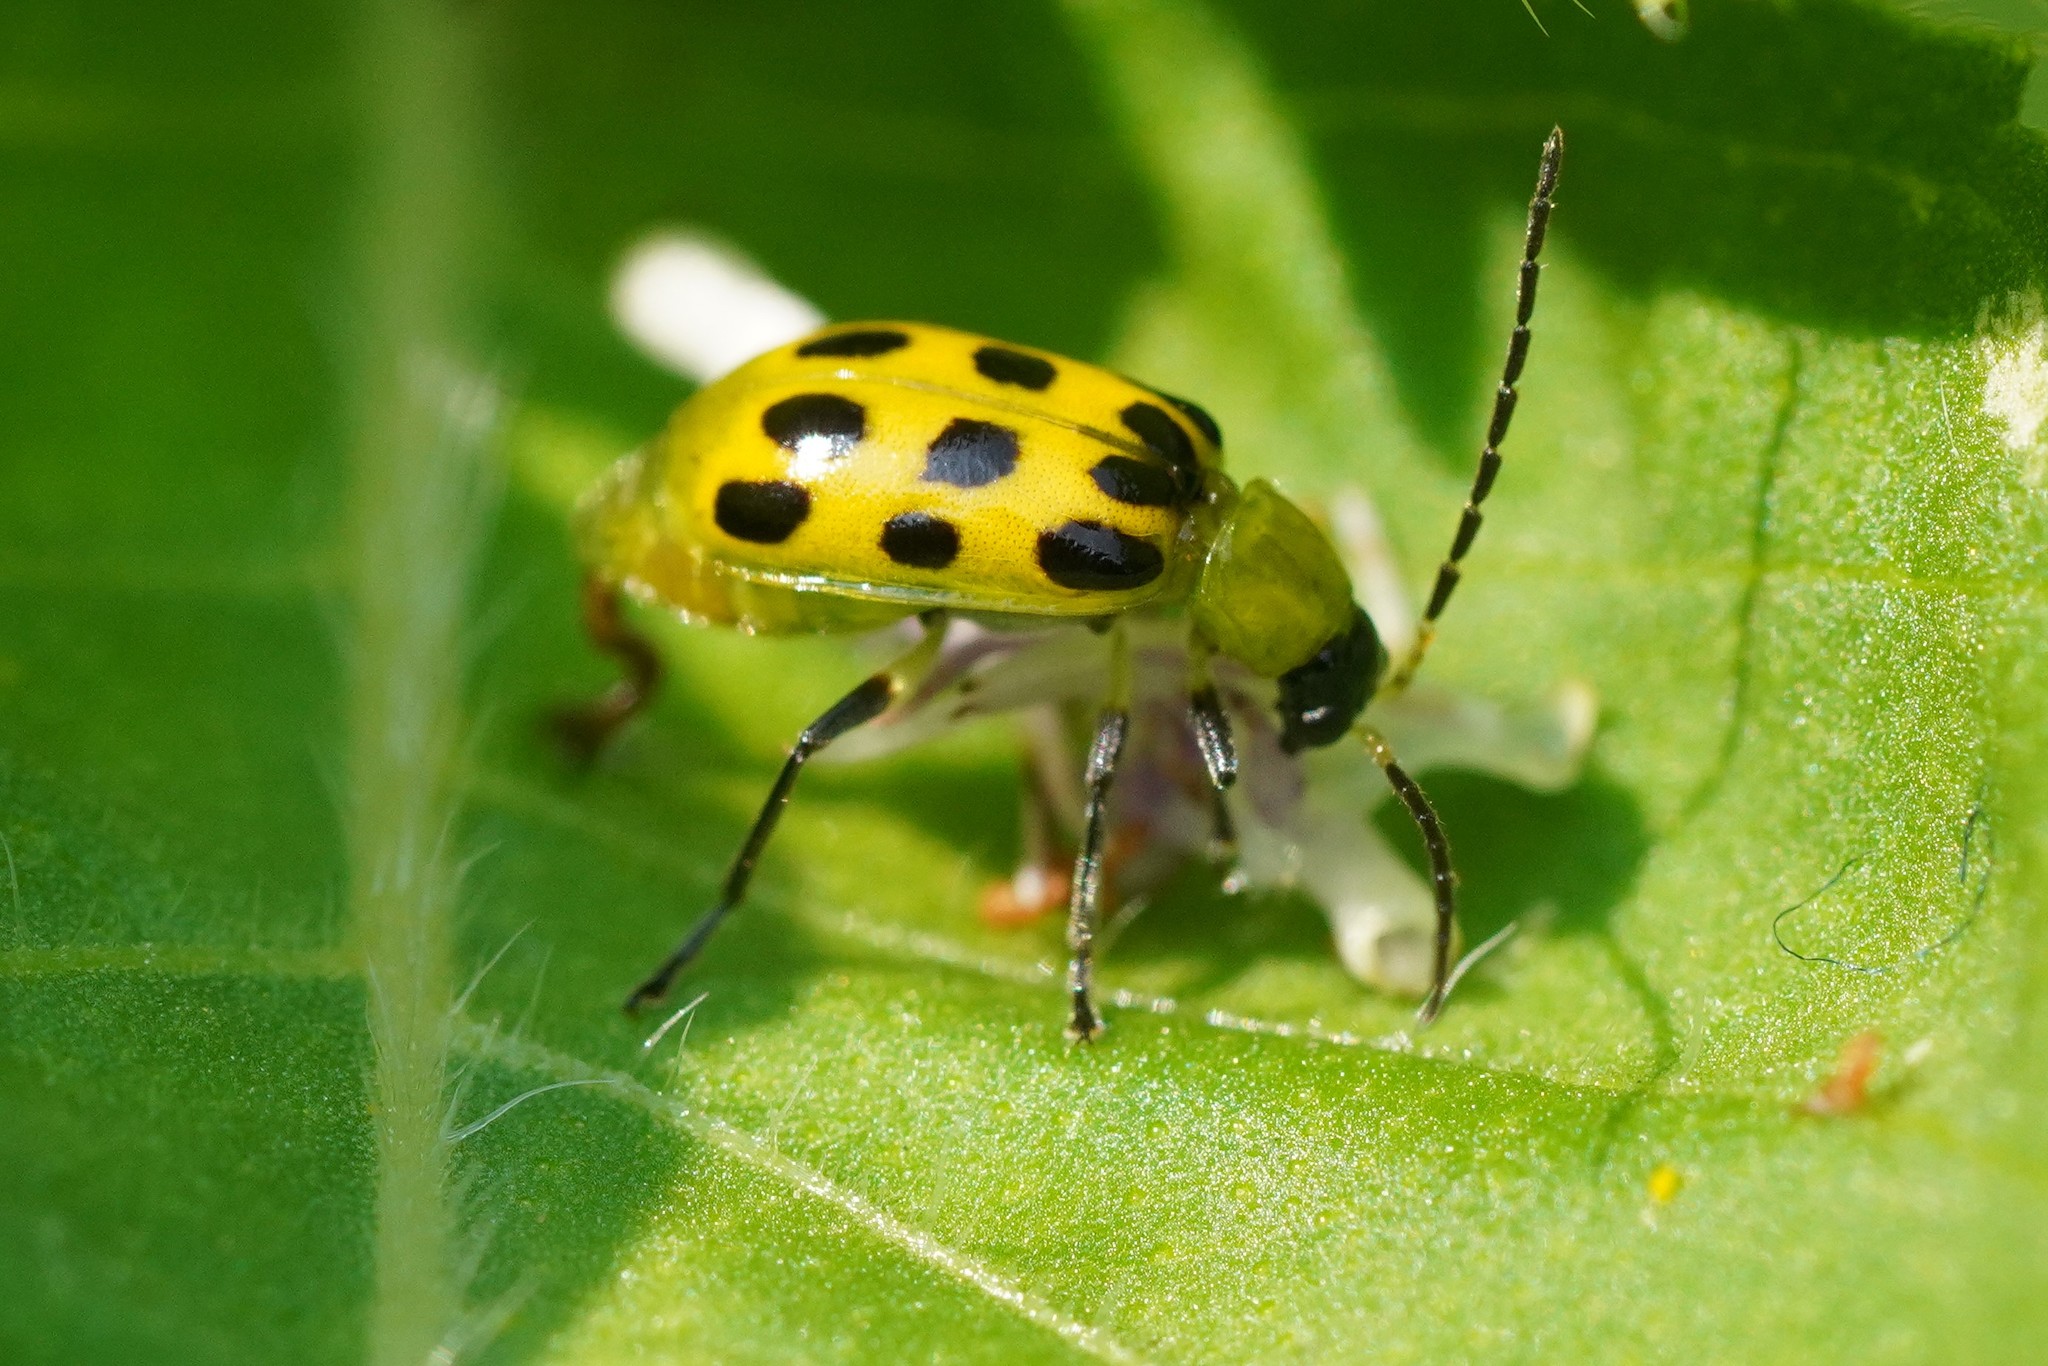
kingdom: Animalia
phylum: Arthropoda
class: Insecta
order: Coleoptera
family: Chrysomelidae
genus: Diabrotica
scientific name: Diabrotica undecimpunctata
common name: Spotted cucumber beetle
